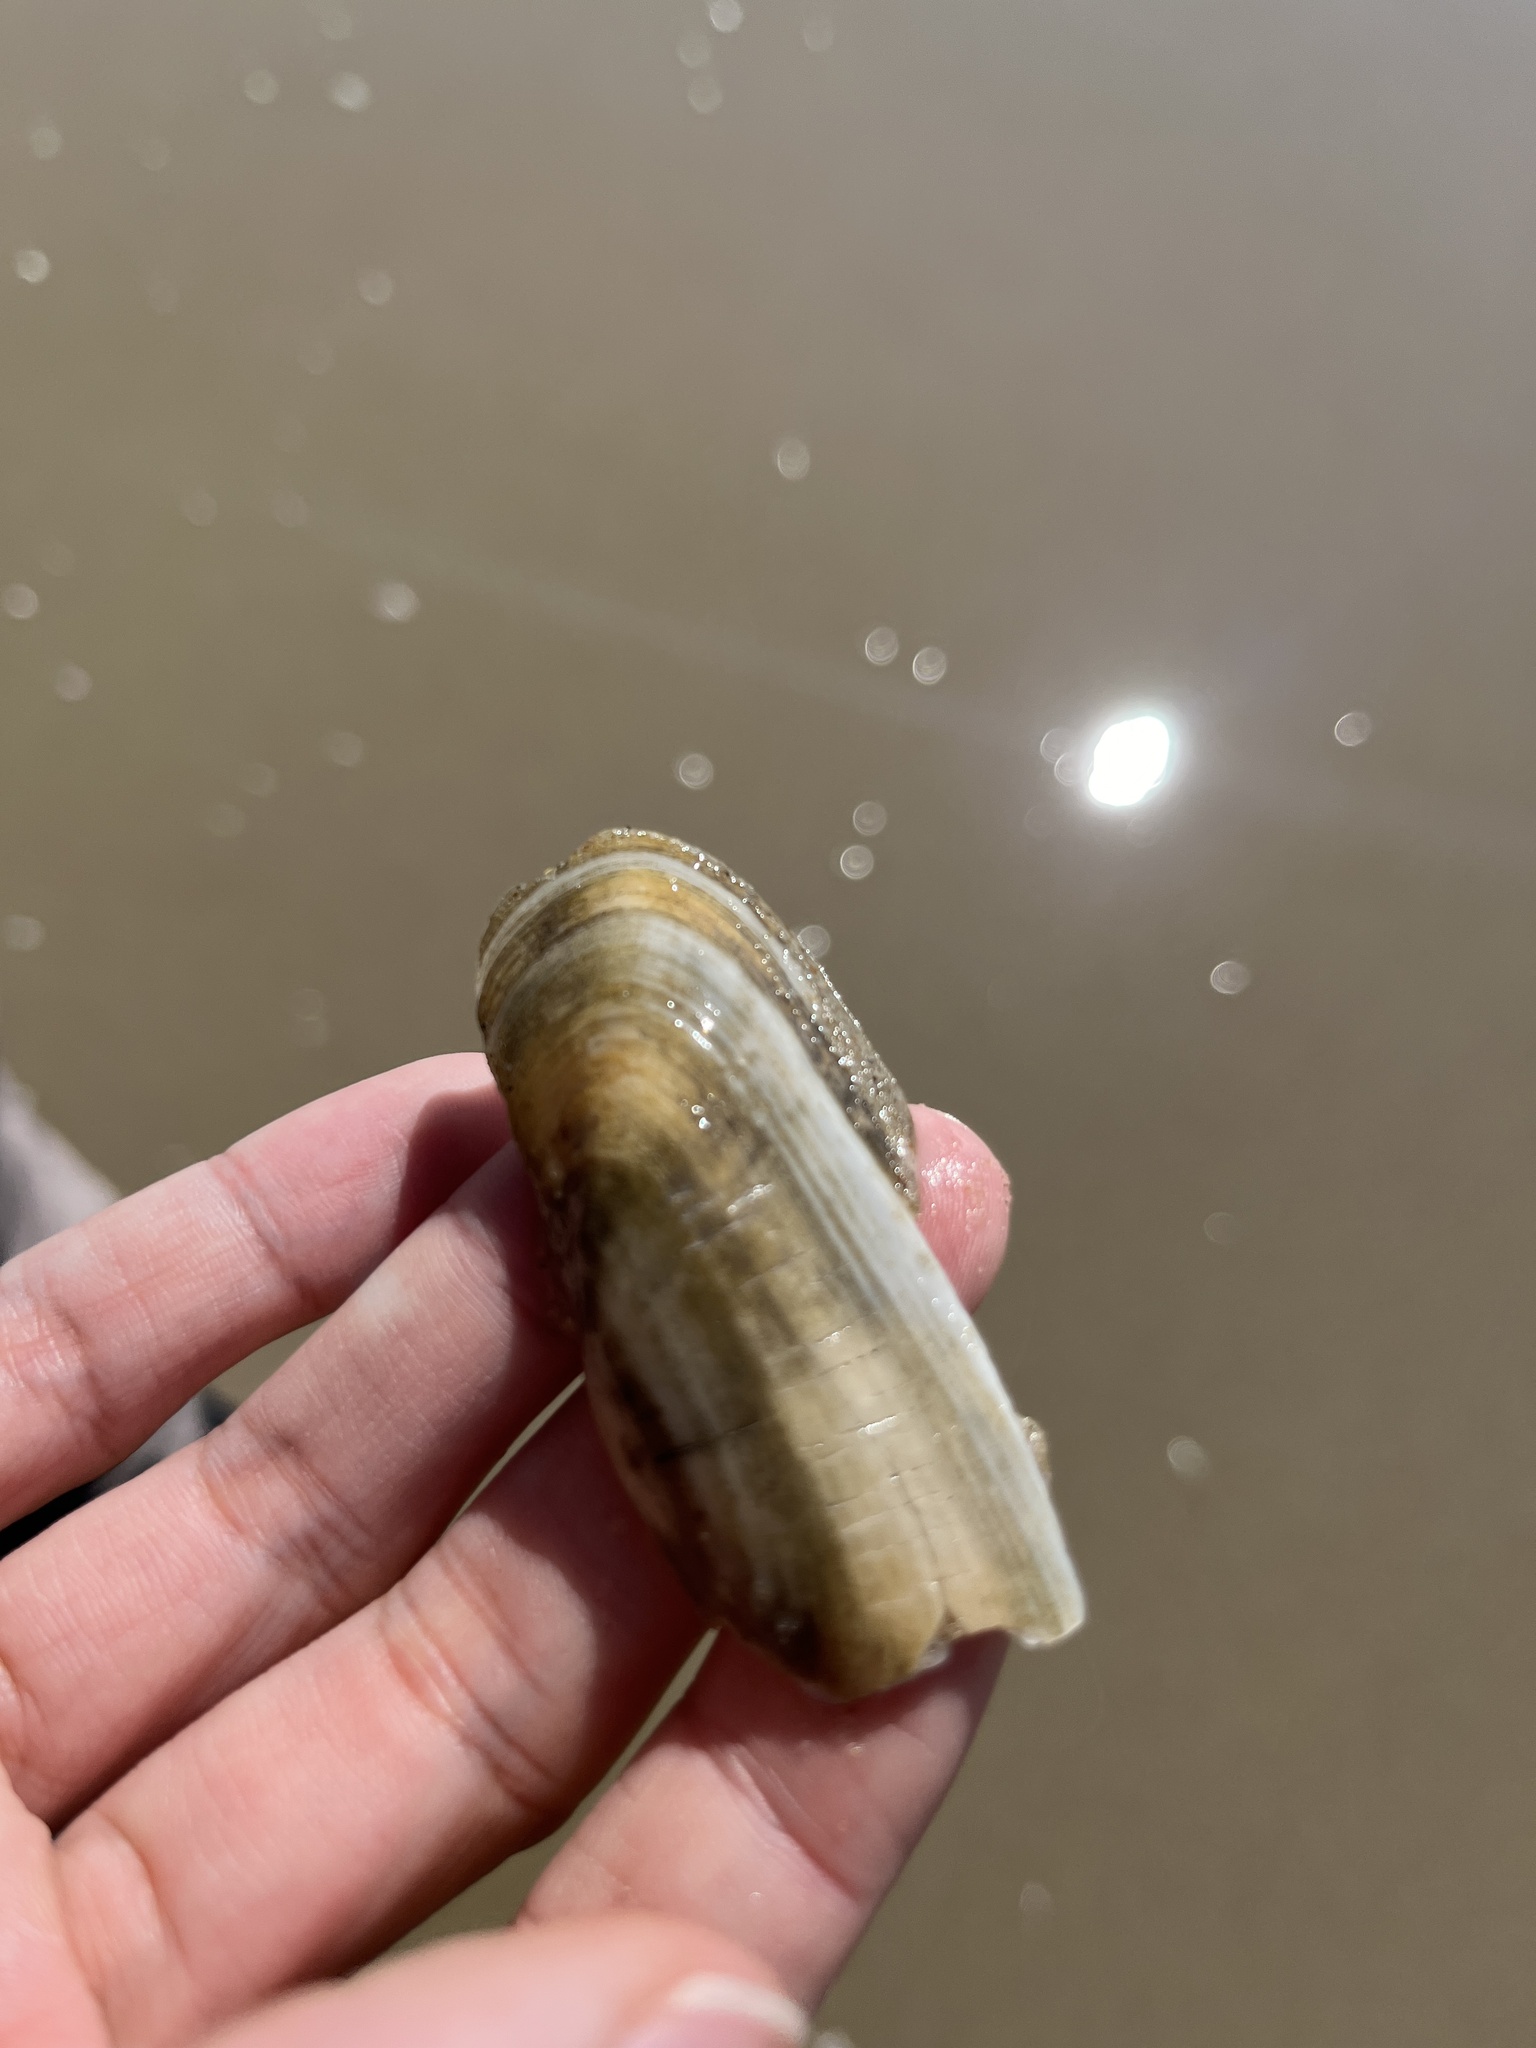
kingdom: Animalia
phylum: Mollusca
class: Bivalvia
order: Cardiida
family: Solecurtidae
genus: Tagelus
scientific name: Tagelus plebeius
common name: Stout tagelus
